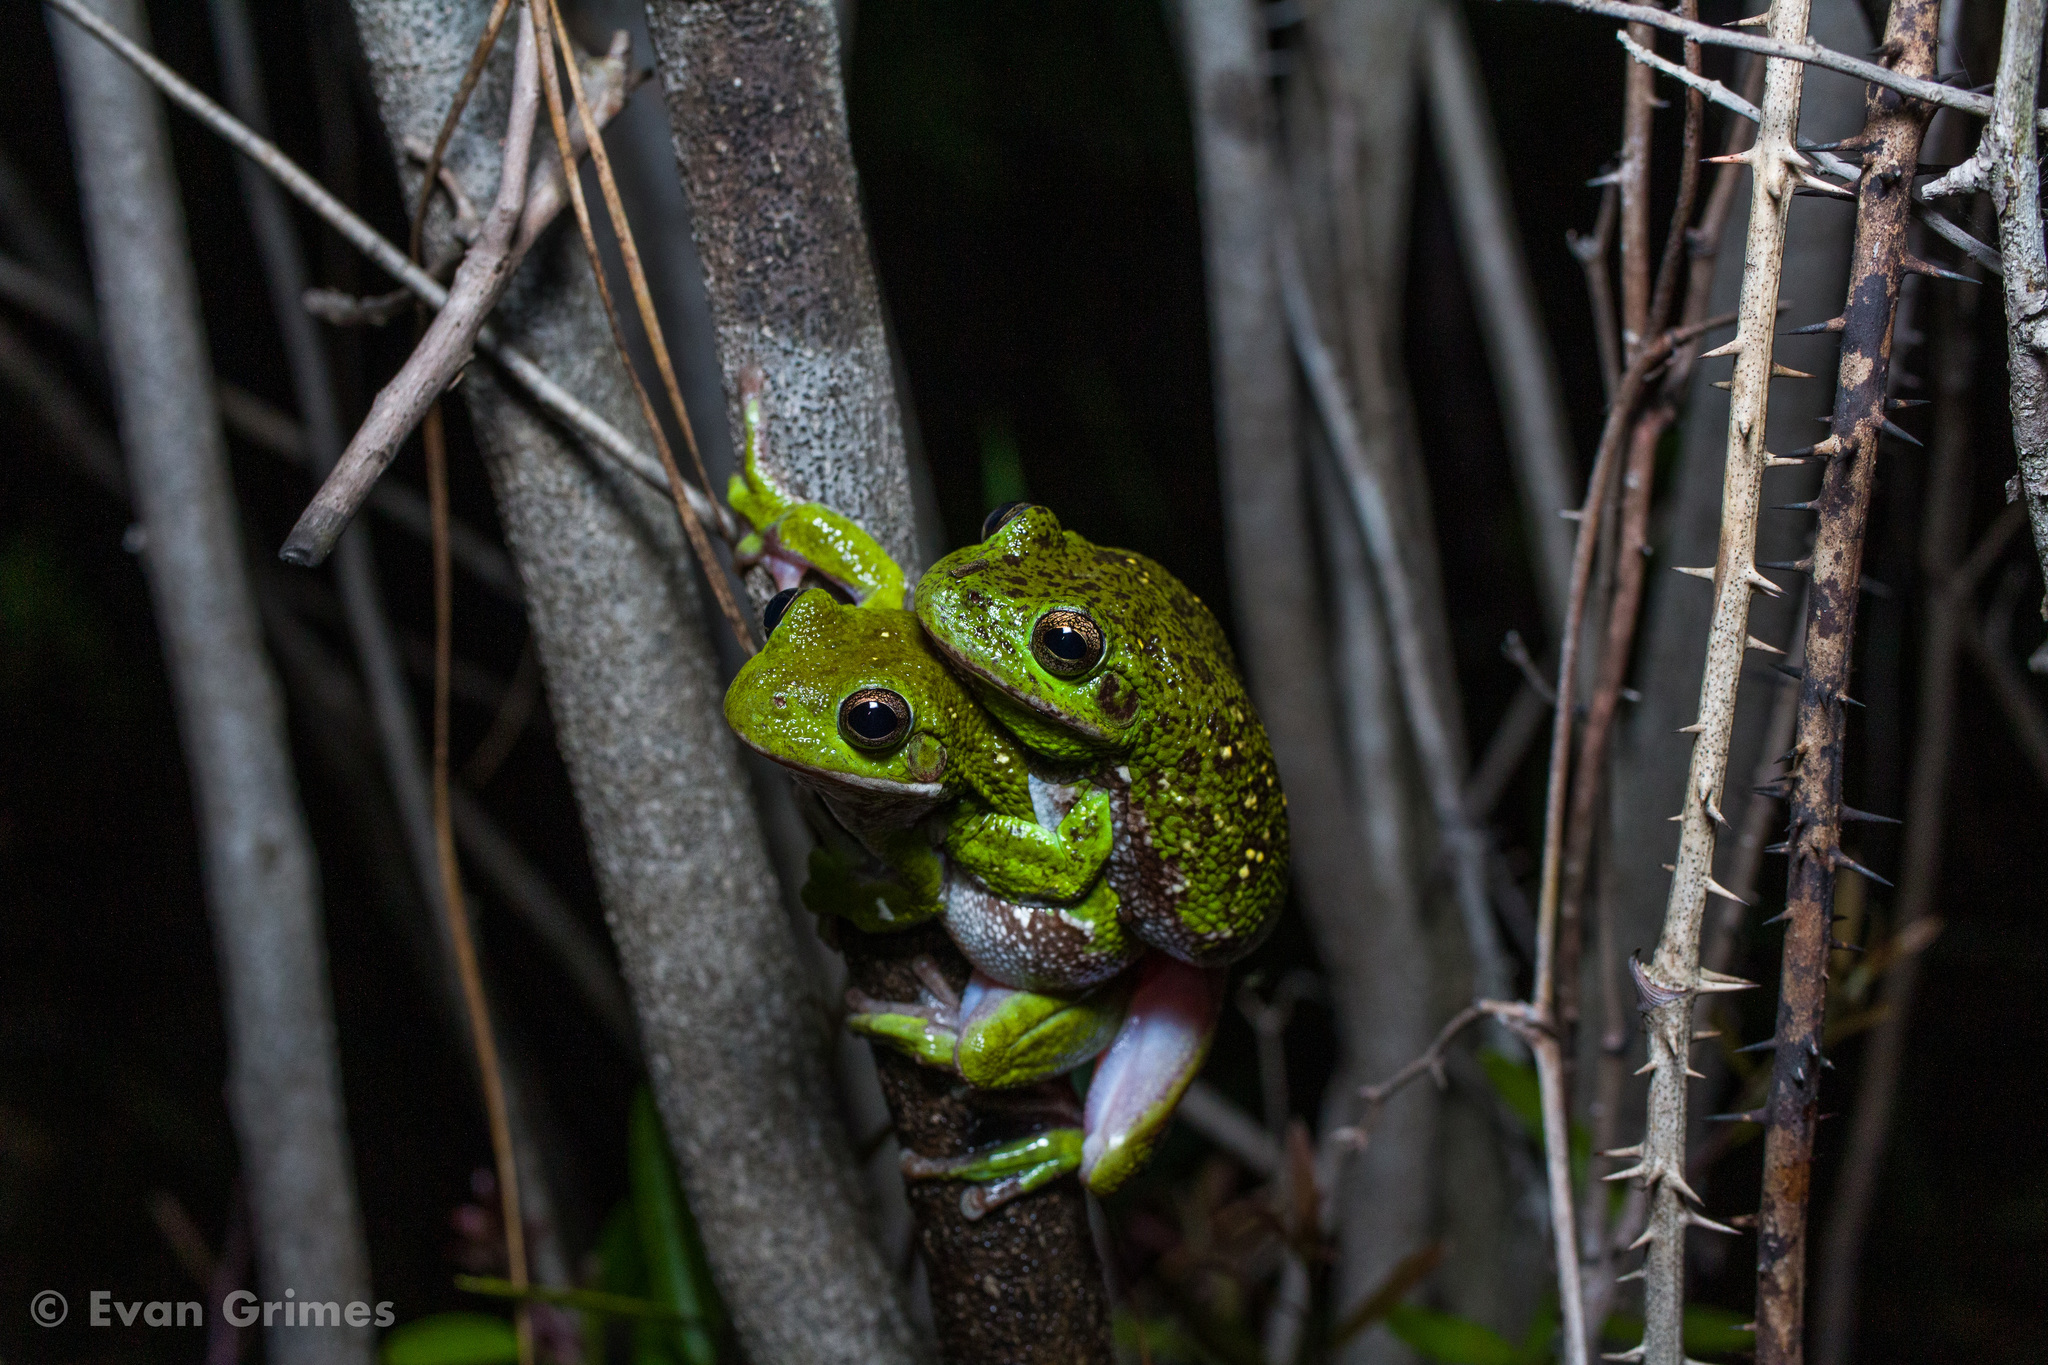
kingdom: Animalia
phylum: Chordata
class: Amphibia
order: Anura
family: Hylidae
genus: Dryophytes
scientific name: Dryophytes gratiosus
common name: Barking treefrog
